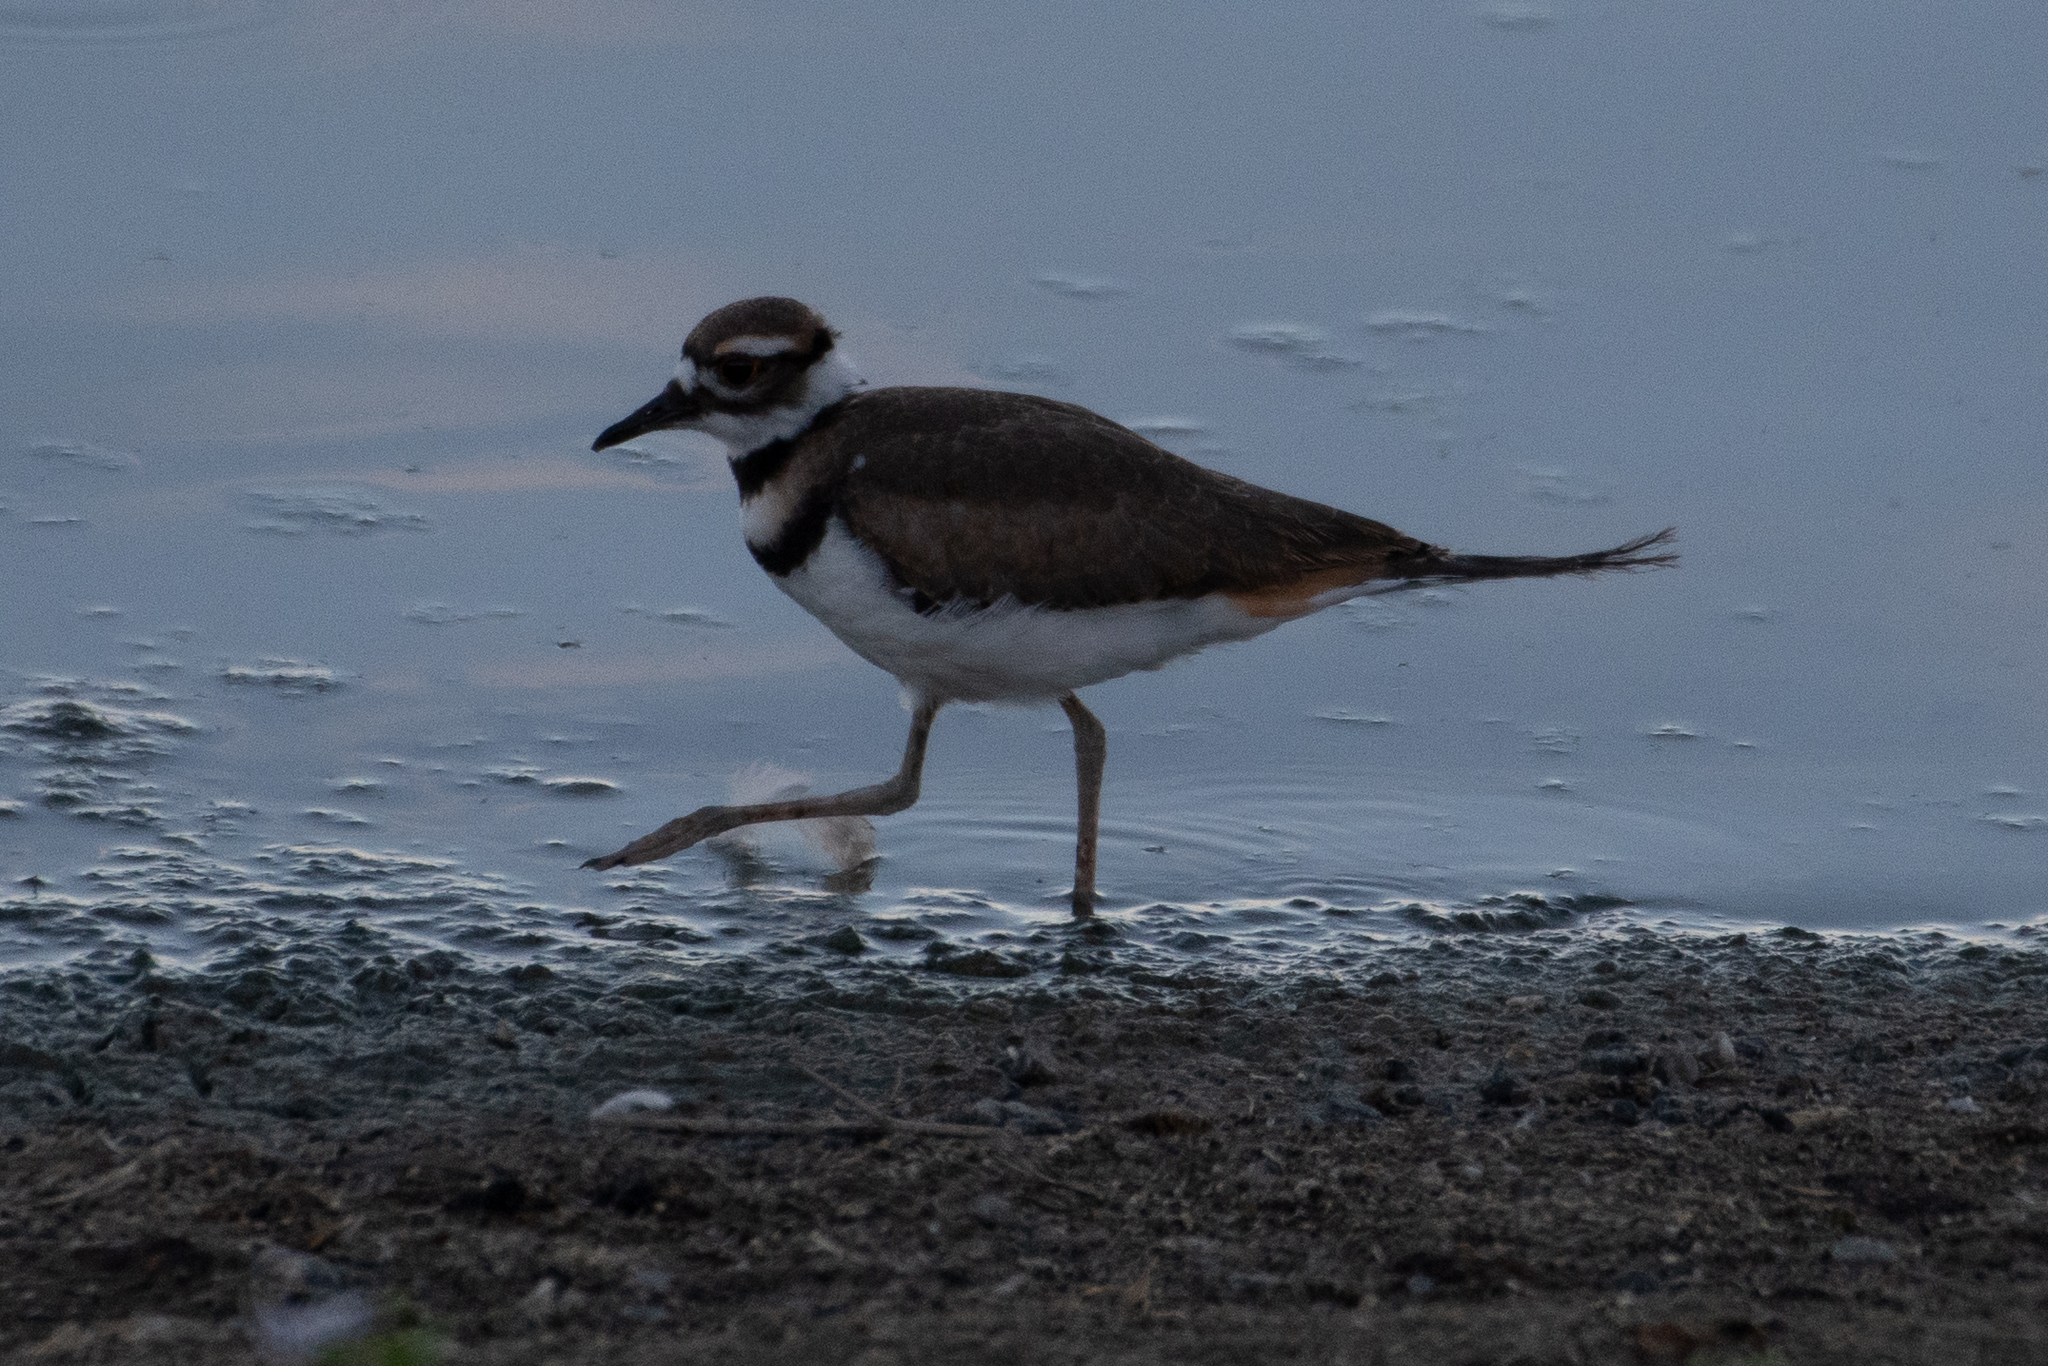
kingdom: Animalia
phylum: Chordata
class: Aves
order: Charadriiformes
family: Charadriidae
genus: Charadrius
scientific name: Charadrius vociferus
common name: Killdeer
